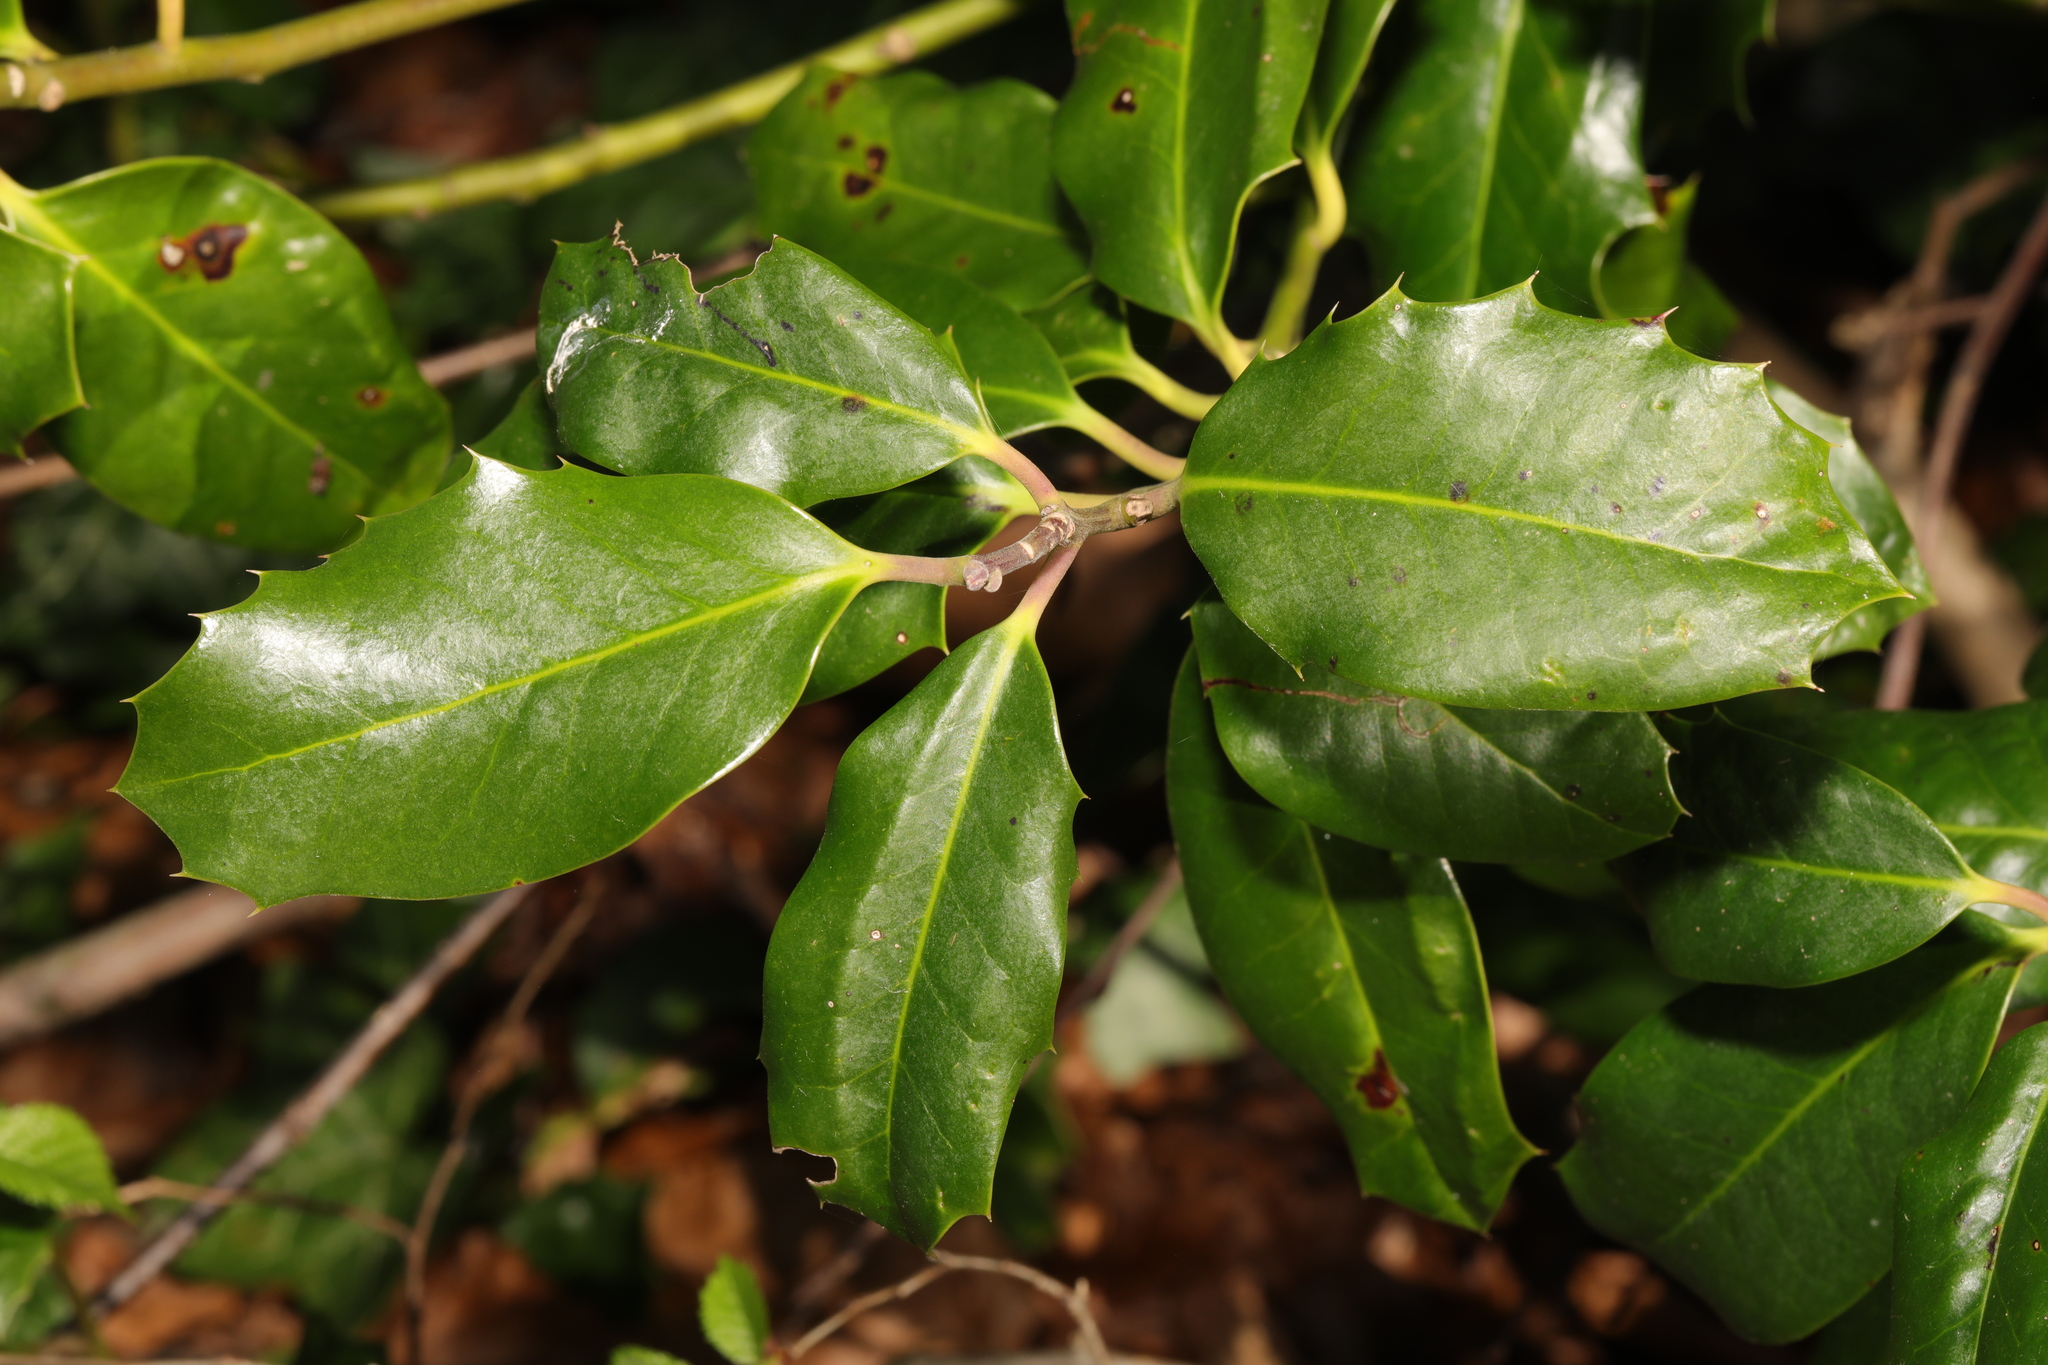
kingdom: Plantae
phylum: Tracheophyta
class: Magnoliopsida
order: Aquifoliales
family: Aquifoliaceae
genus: Ilex
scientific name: Ilex aquifolium
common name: English holly
